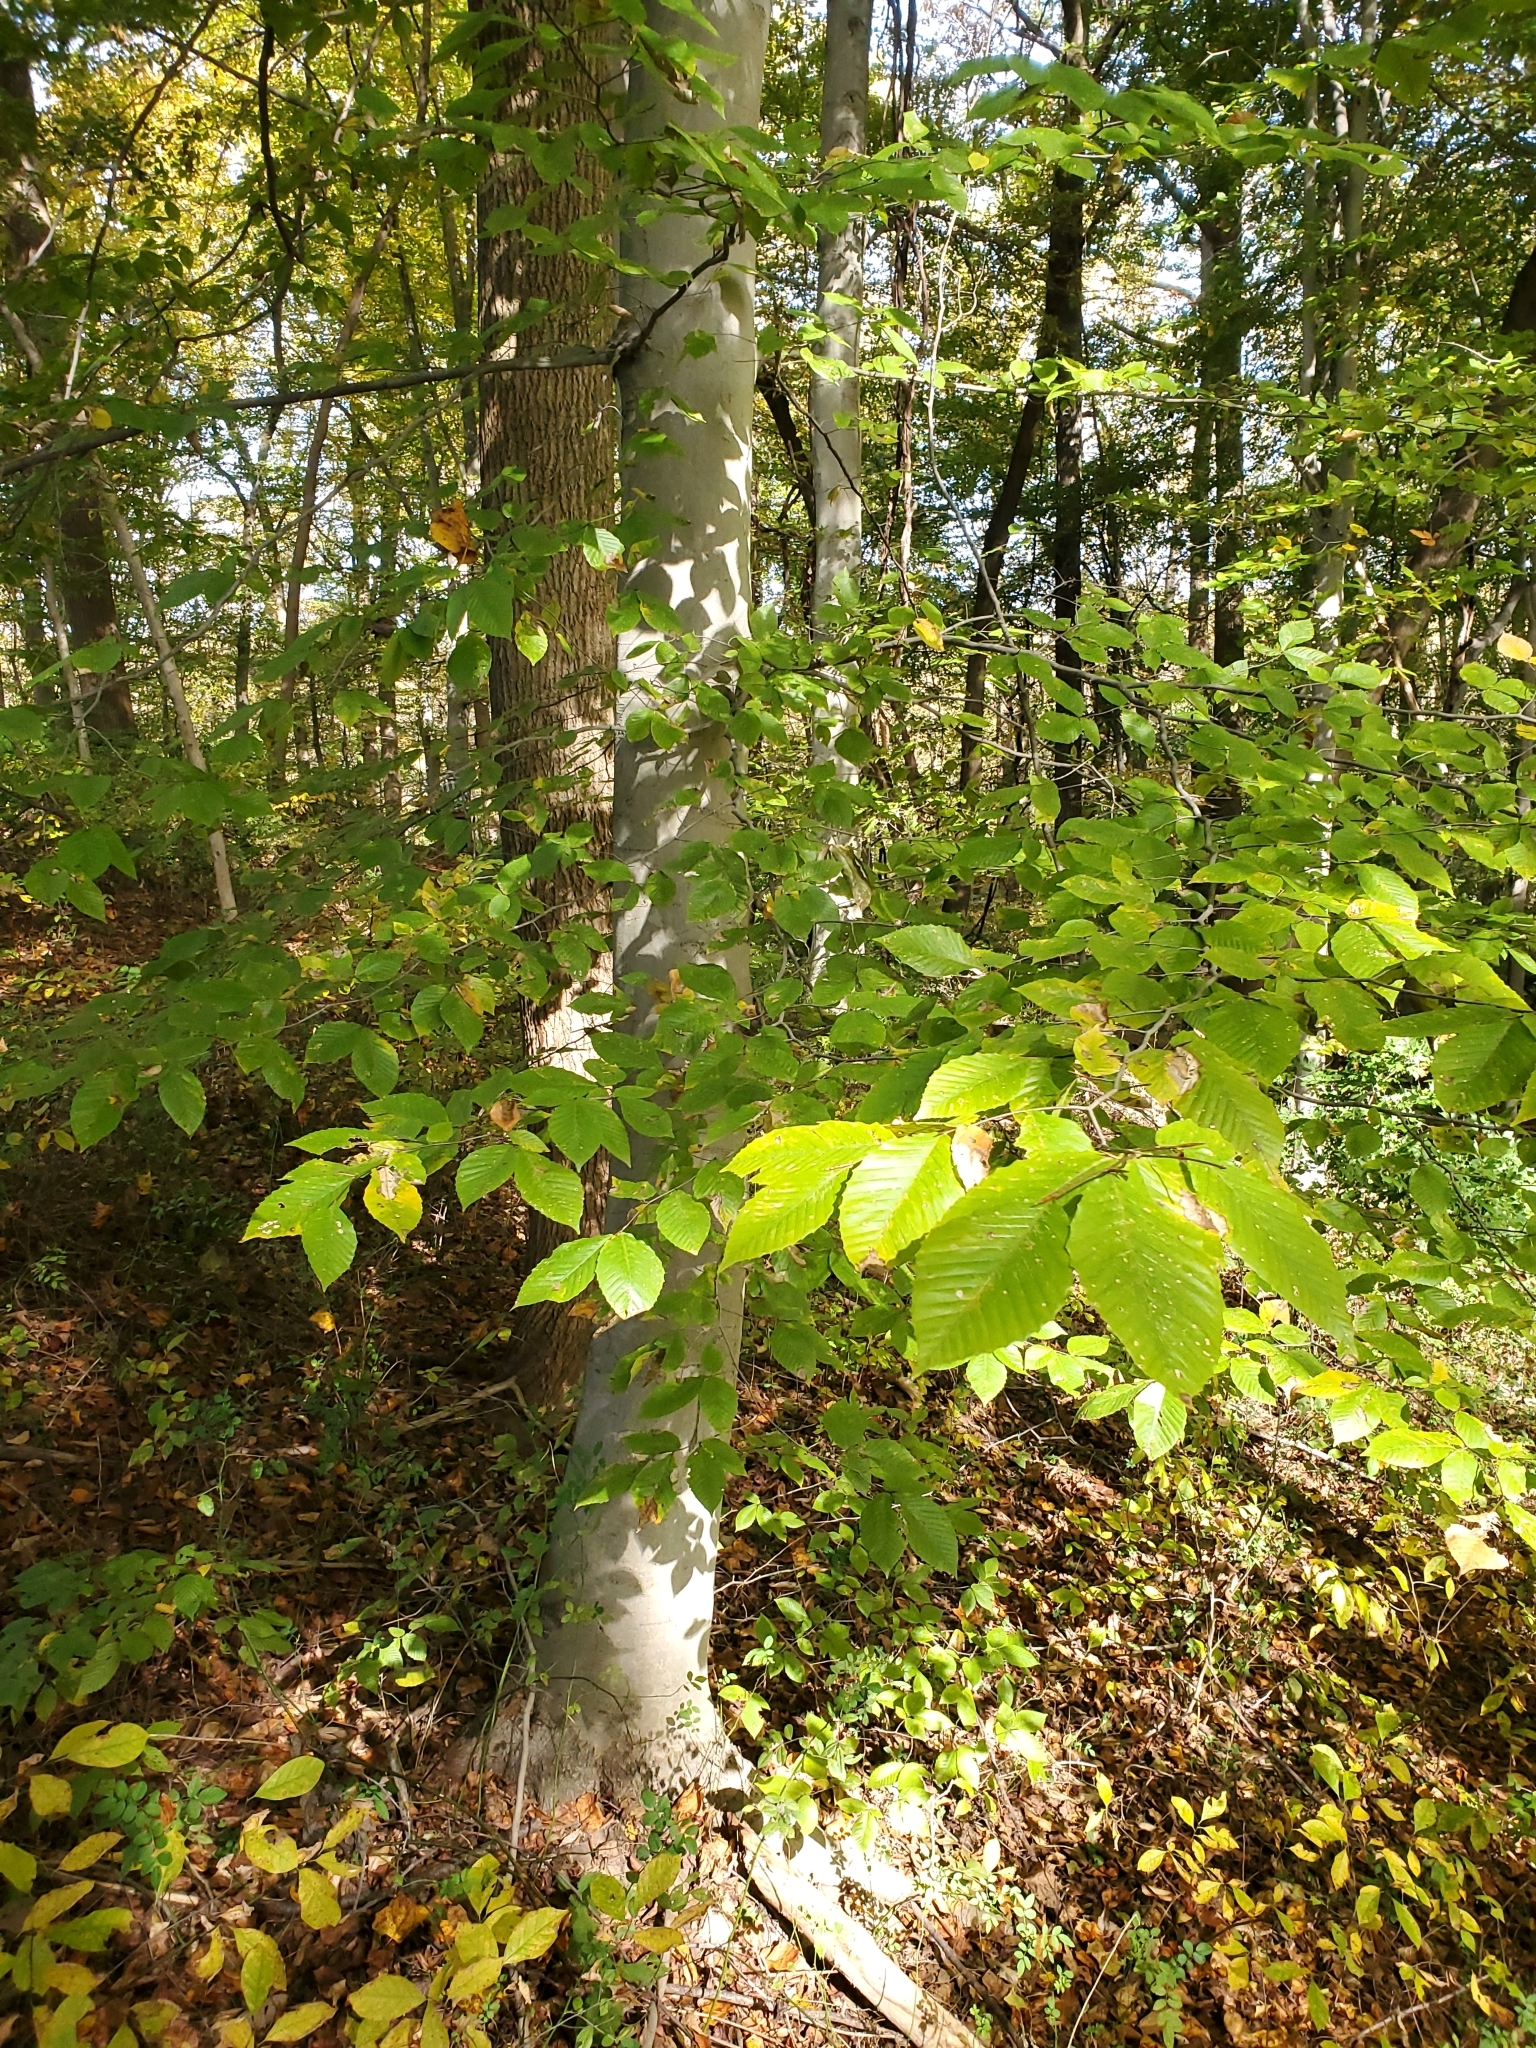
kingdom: Plantae
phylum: Tracheophyta
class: Magnoliopsida
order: Fagales
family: Fagaceae
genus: Fagus
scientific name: Fagus grandifolia
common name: American beech
